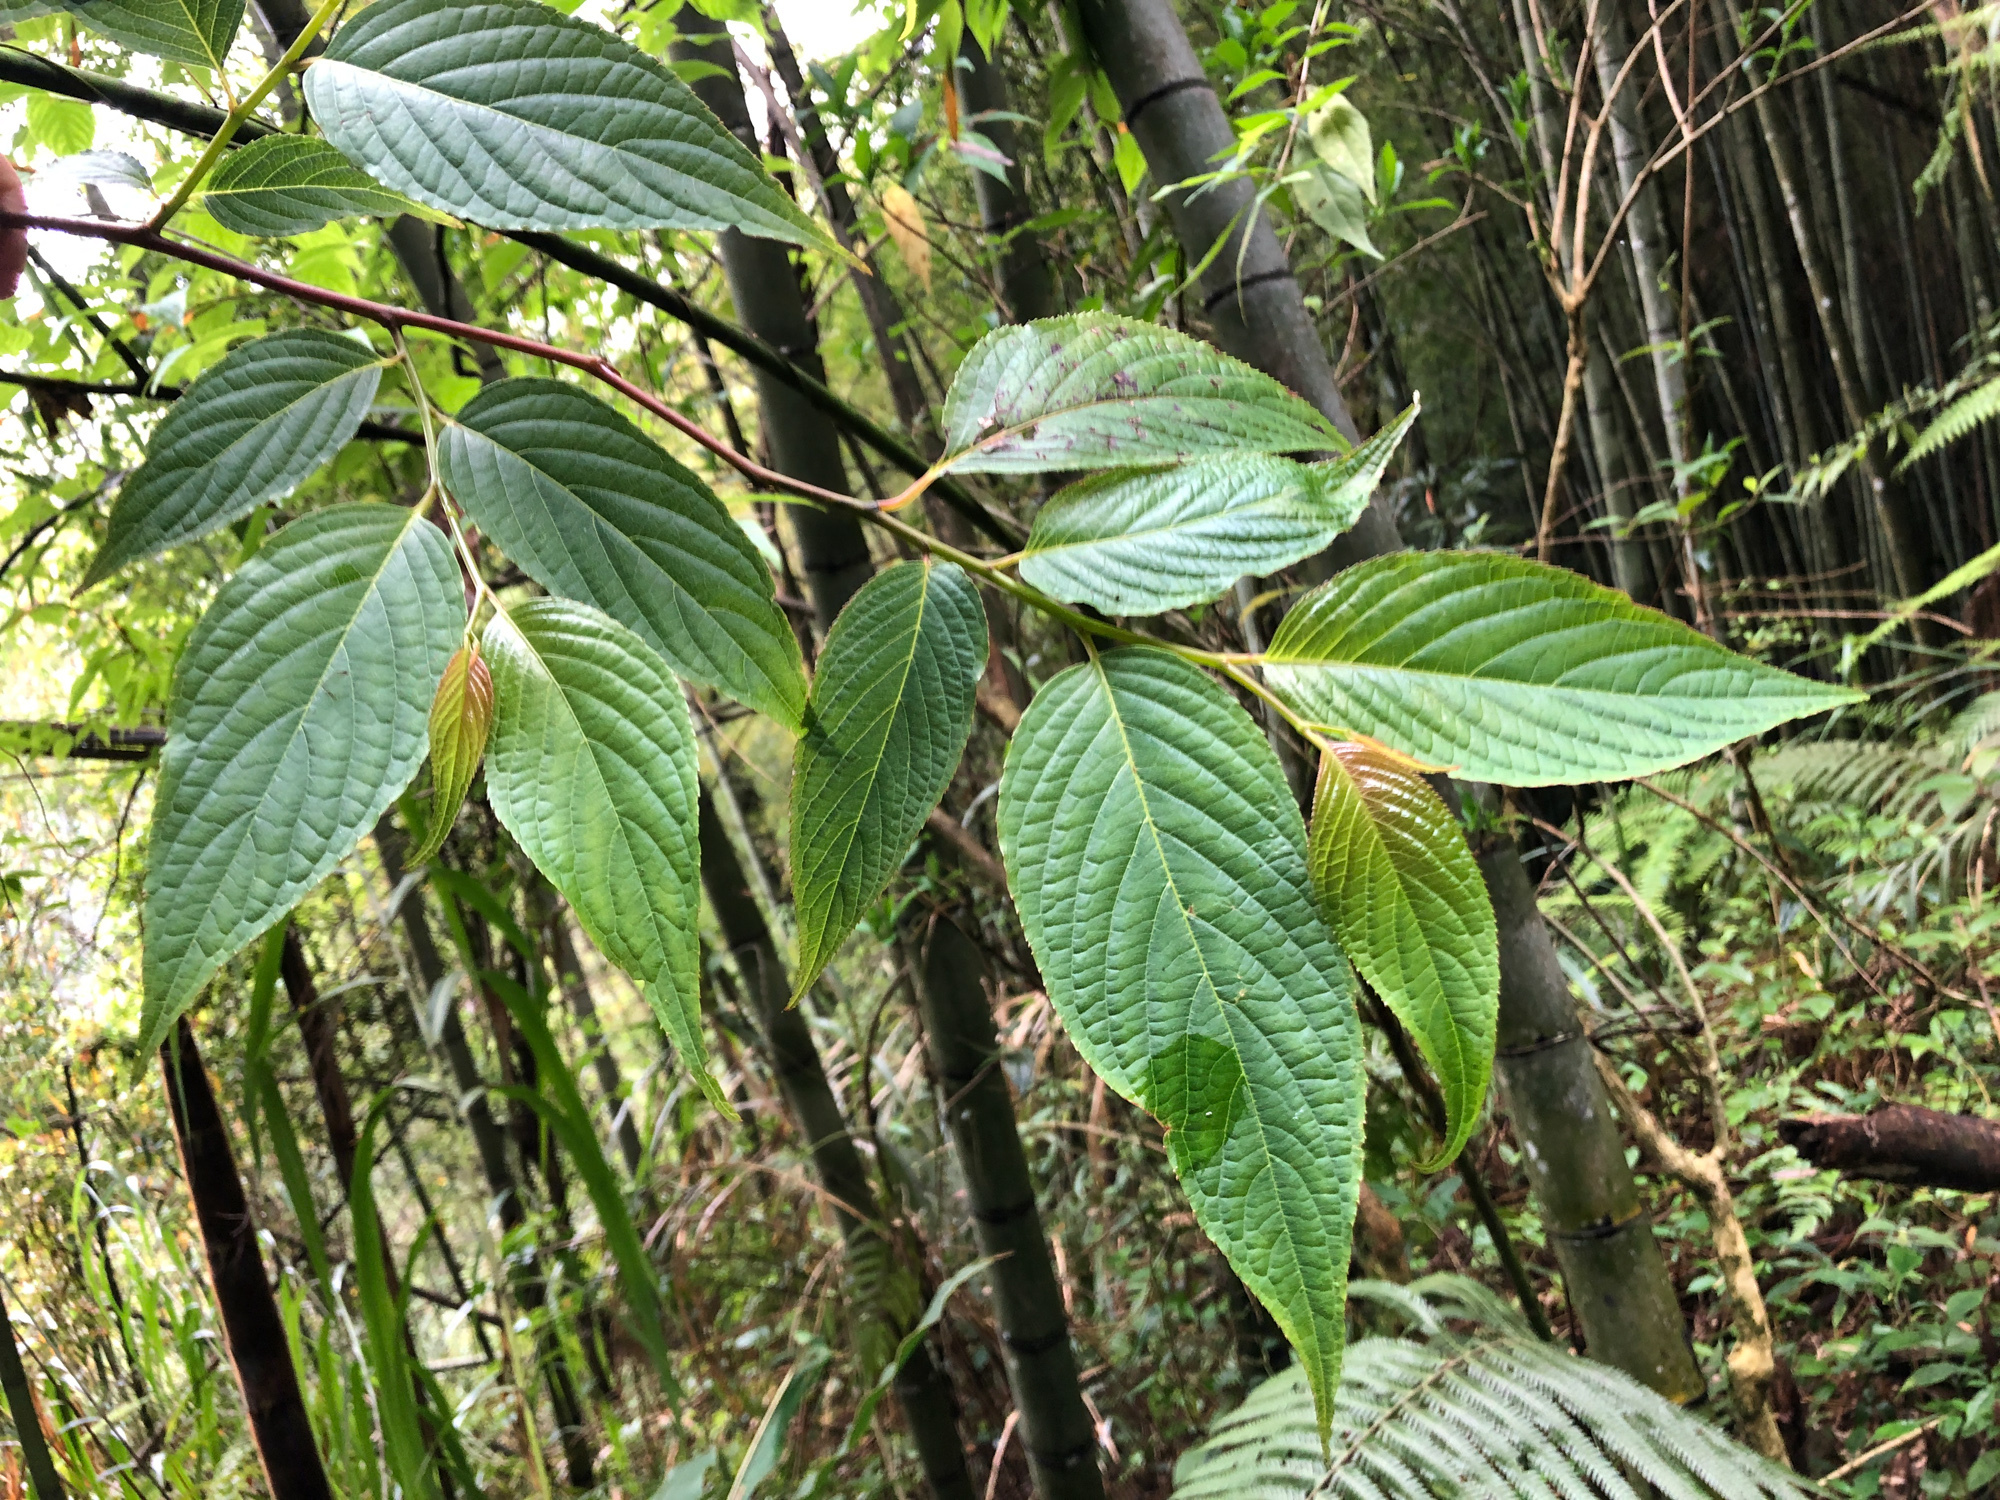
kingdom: Plantae
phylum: Tracheophyta
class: Magnoliopsida
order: Huerteales
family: Dipentodontaceae
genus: Perrottetia
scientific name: Perrottetia arisanensis
